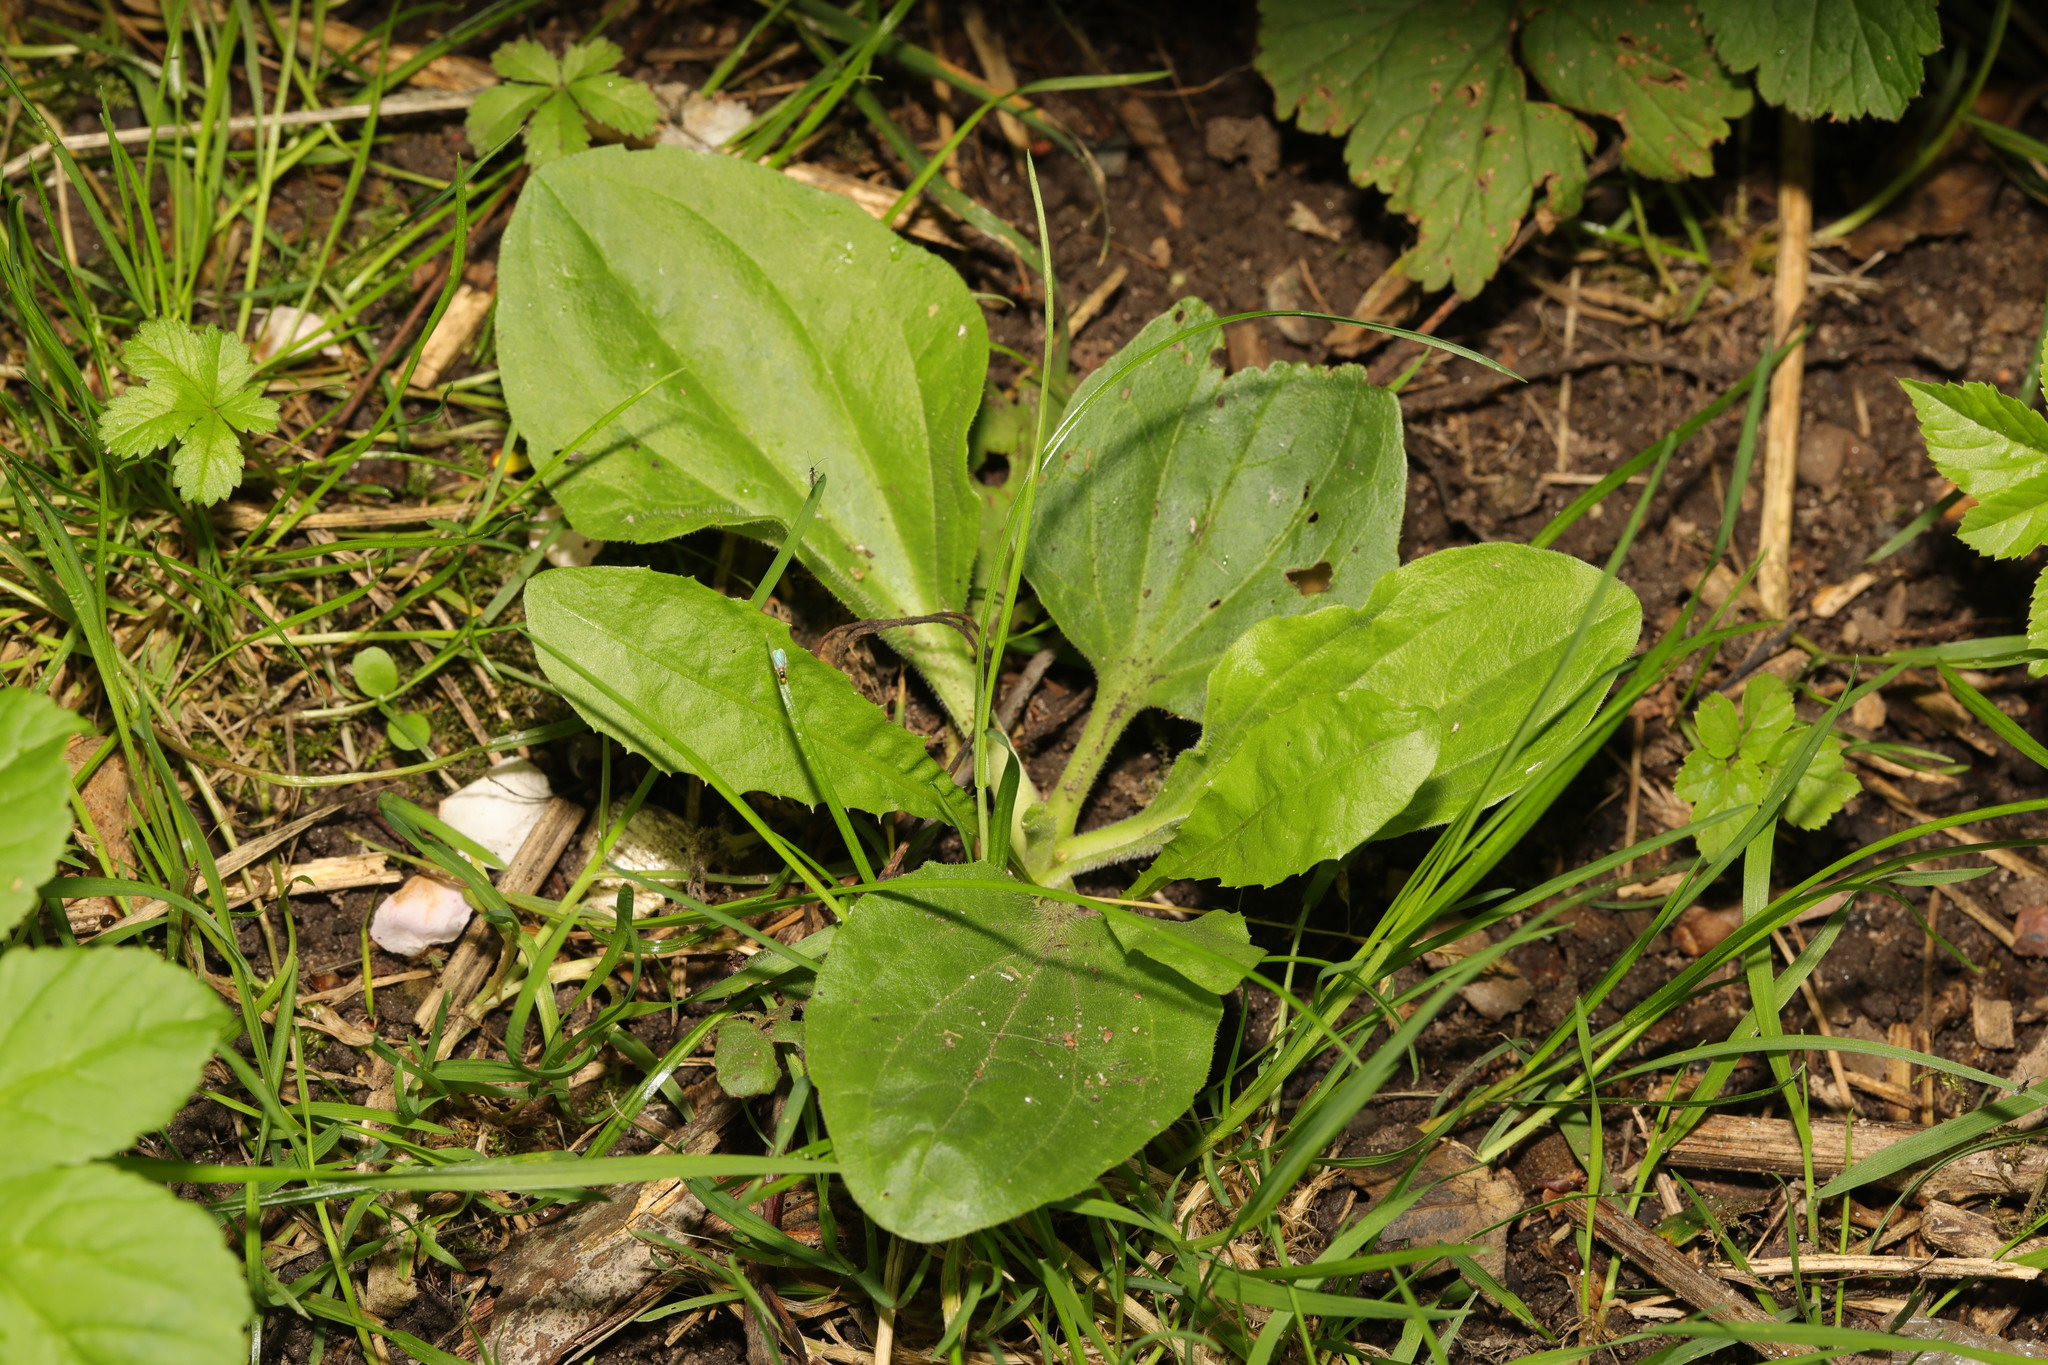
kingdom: Plantae
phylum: Tracheophyta
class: Magnoliopsida
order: Lamiales
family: Plantaginaceae
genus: Plantago
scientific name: Plantago major
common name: Common plantain
